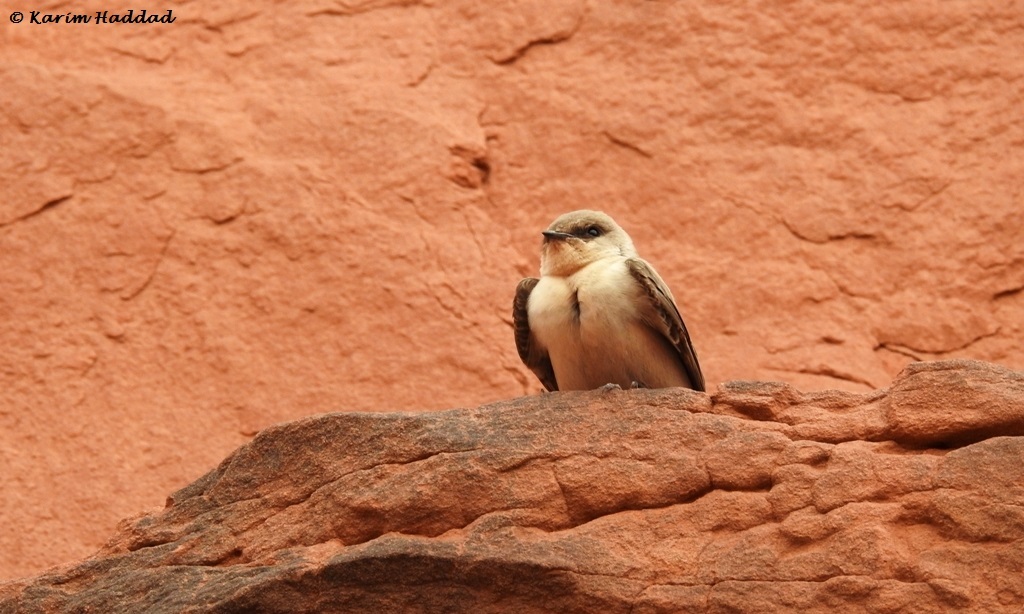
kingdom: Animalia
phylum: Chordata
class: Aves
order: Passeriformes
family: Hirundinidae
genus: Ptyonoprogne
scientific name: Ptyonoprogne rupestris
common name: Eurasian crag martin
